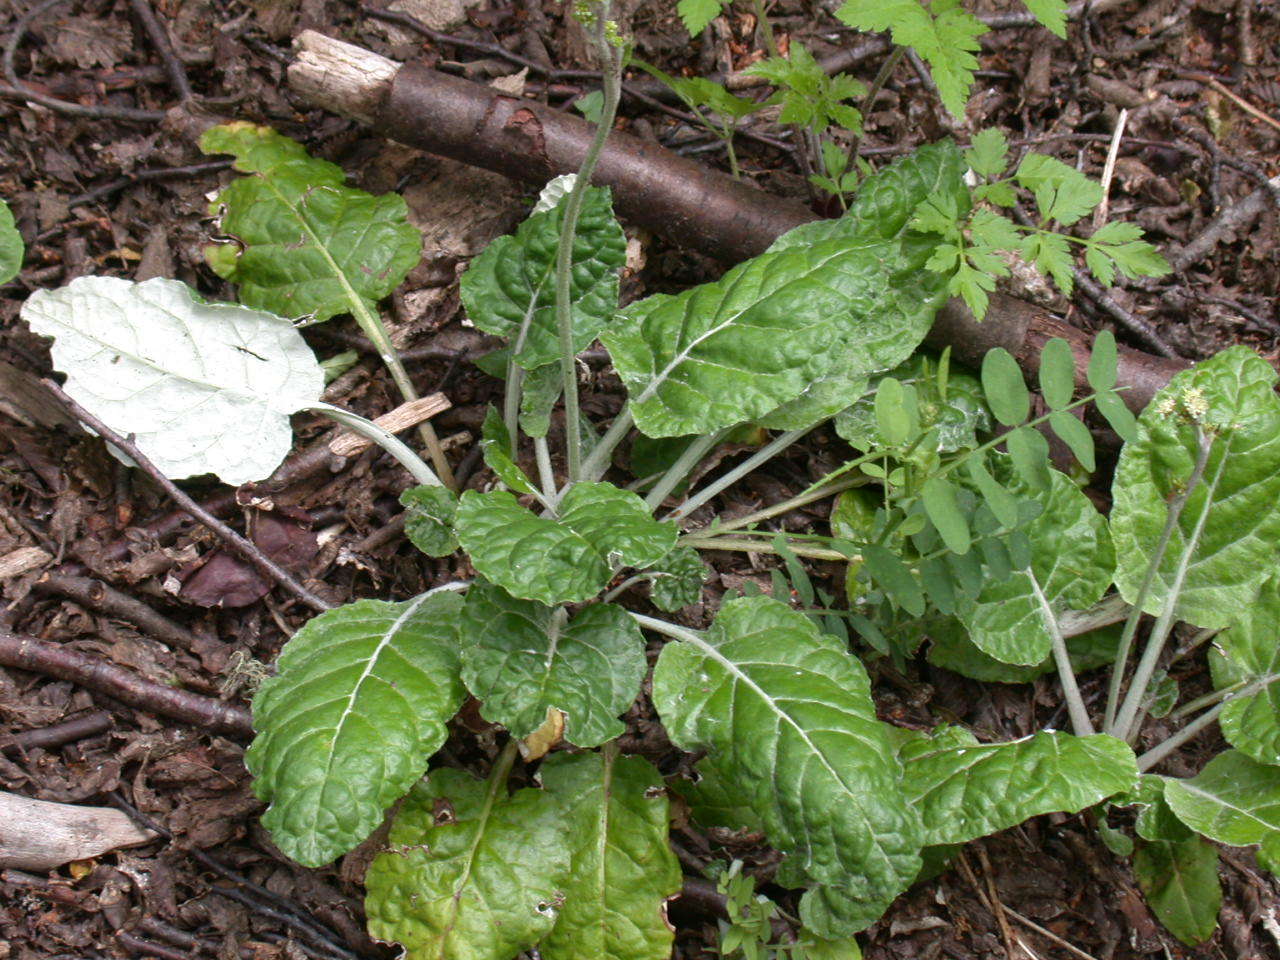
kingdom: Plantae
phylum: Tracheophyta
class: Magnoliopsida
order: Asterales
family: Asteraceae
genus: Adenocaulon
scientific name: Adenocaulon chilense
